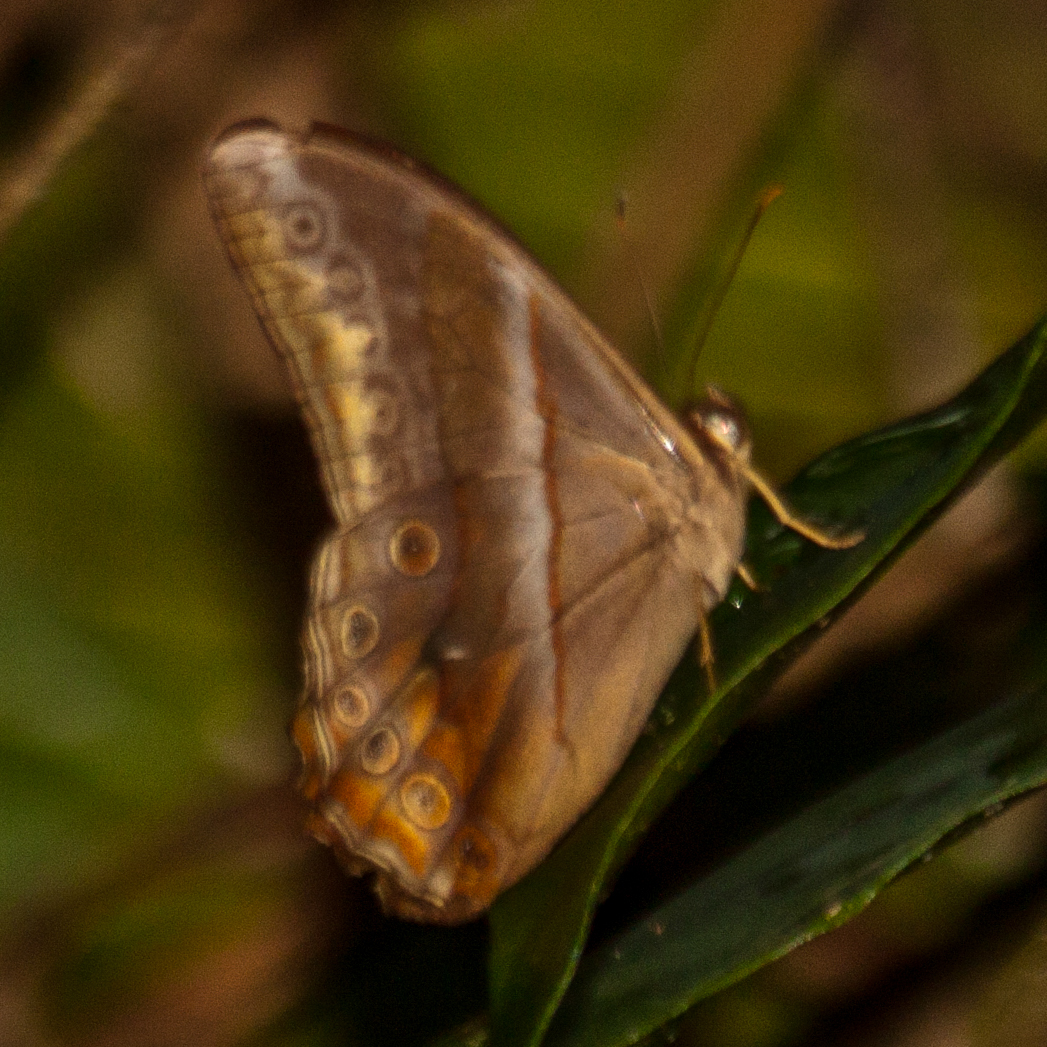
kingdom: Animalia
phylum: Arthropoda
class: Insecta
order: Lepidoptera
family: Nymphalidae
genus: Lethe
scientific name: Lethe mekara
